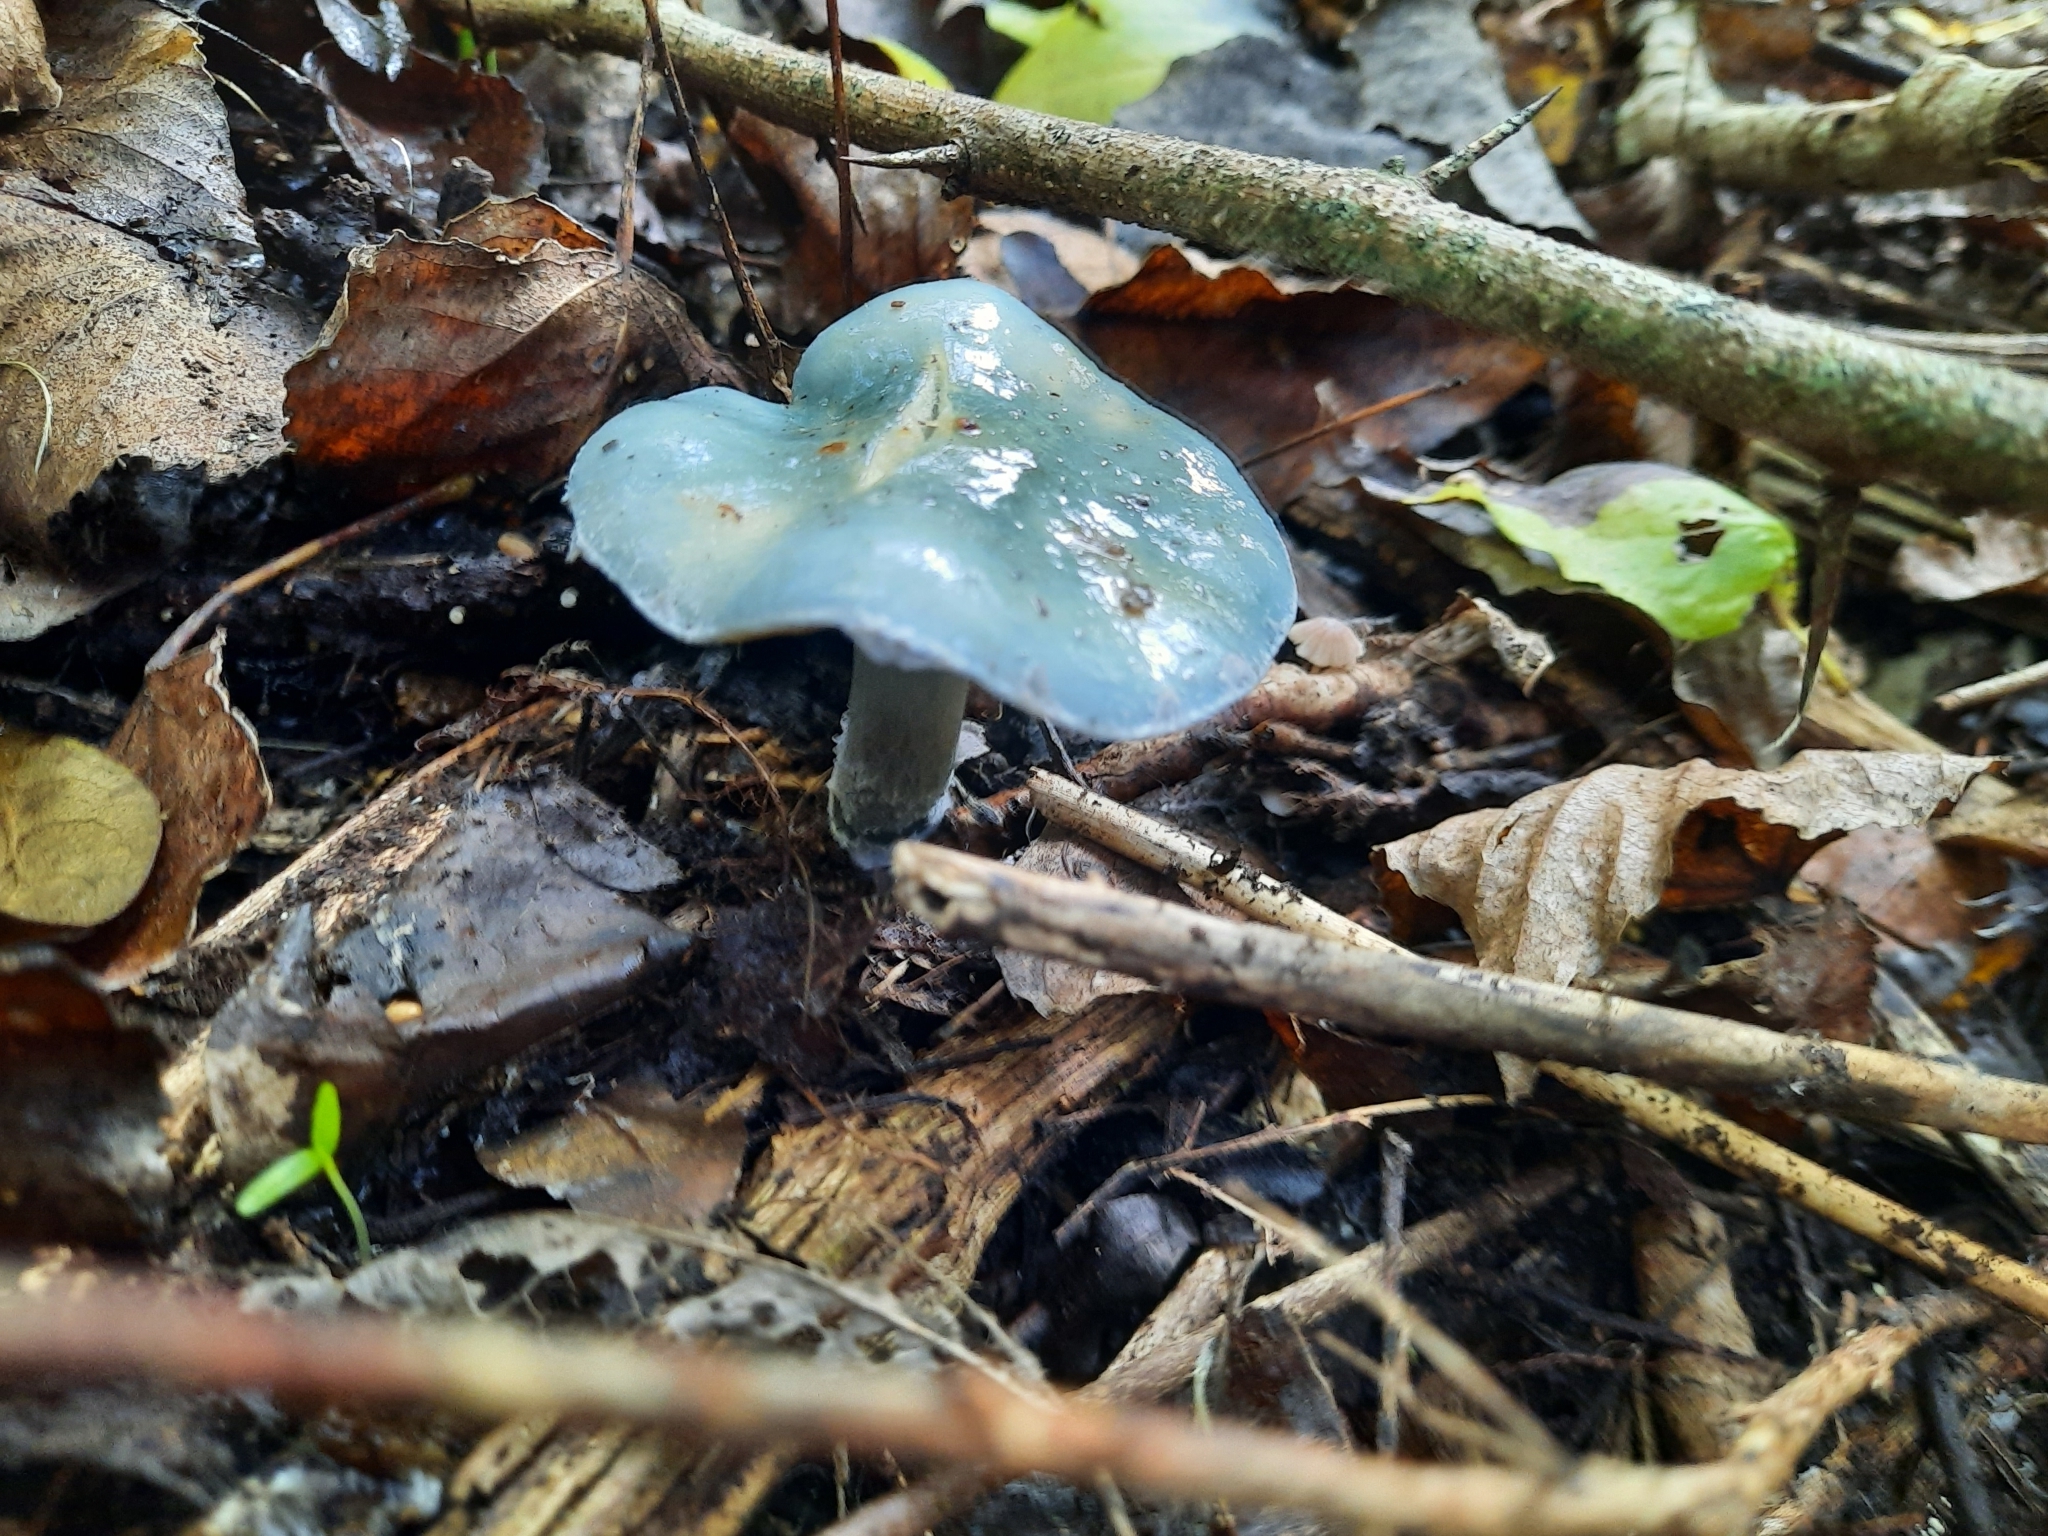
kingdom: Fungi
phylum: Basidiomycota
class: Agaricomycetes
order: Agaricales
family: Strophariaceae
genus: Stropharia
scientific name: Stropharia caerulea
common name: Blue roundhead
